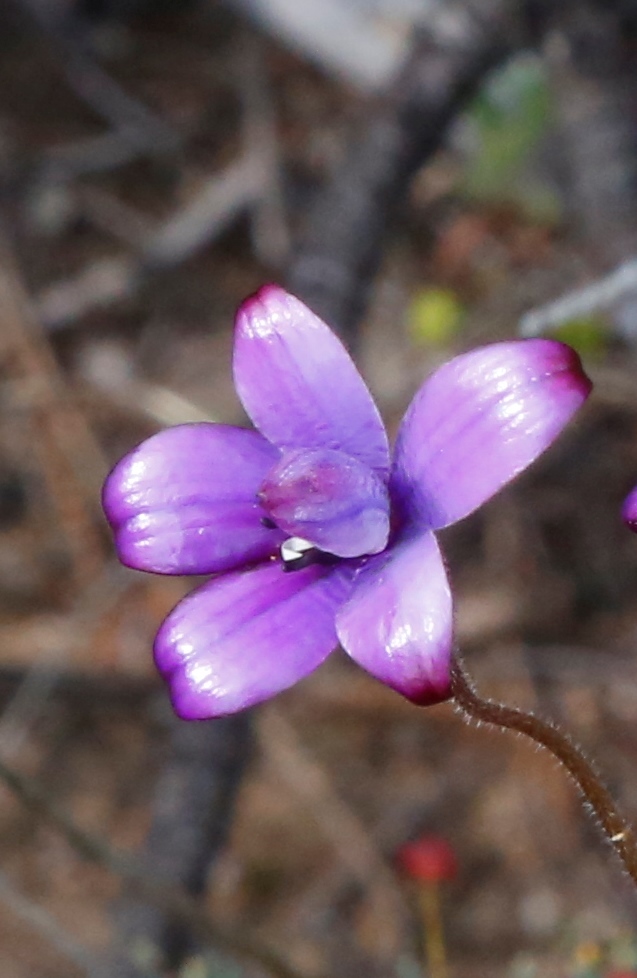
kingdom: Plantae
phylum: Tracheophyta
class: Liliopsida
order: Asparagales
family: Orchidaceae
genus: Caladenia
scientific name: Caladenia brunonis
